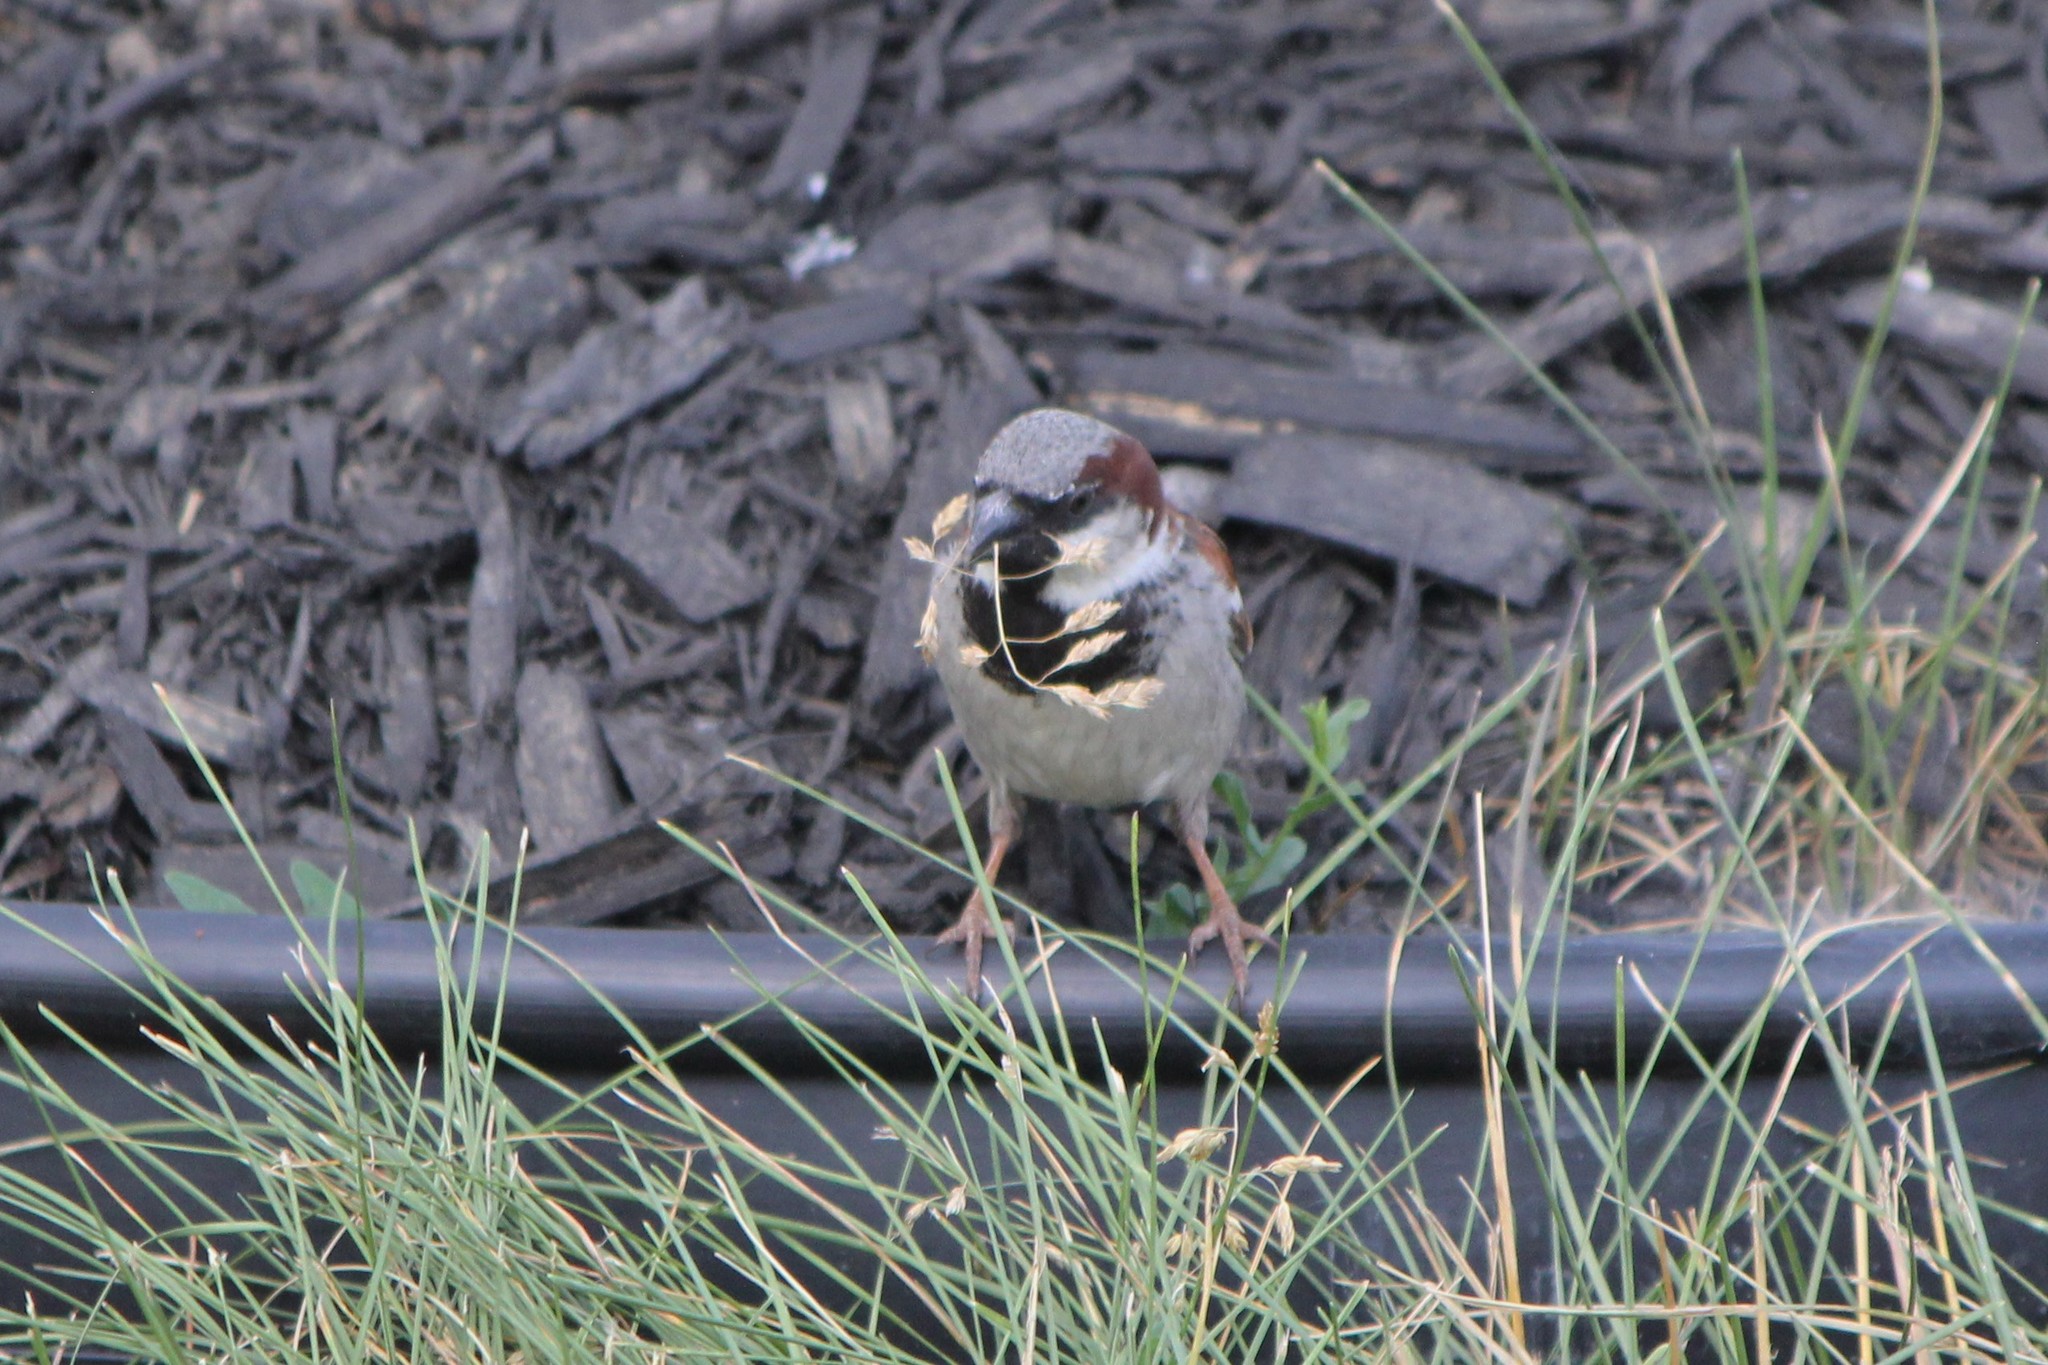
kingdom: Animalia
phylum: Chordata
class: Aves
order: Passeriformes
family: Passeridae
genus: Passer
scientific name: Passer domesticus
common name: House sparrow
